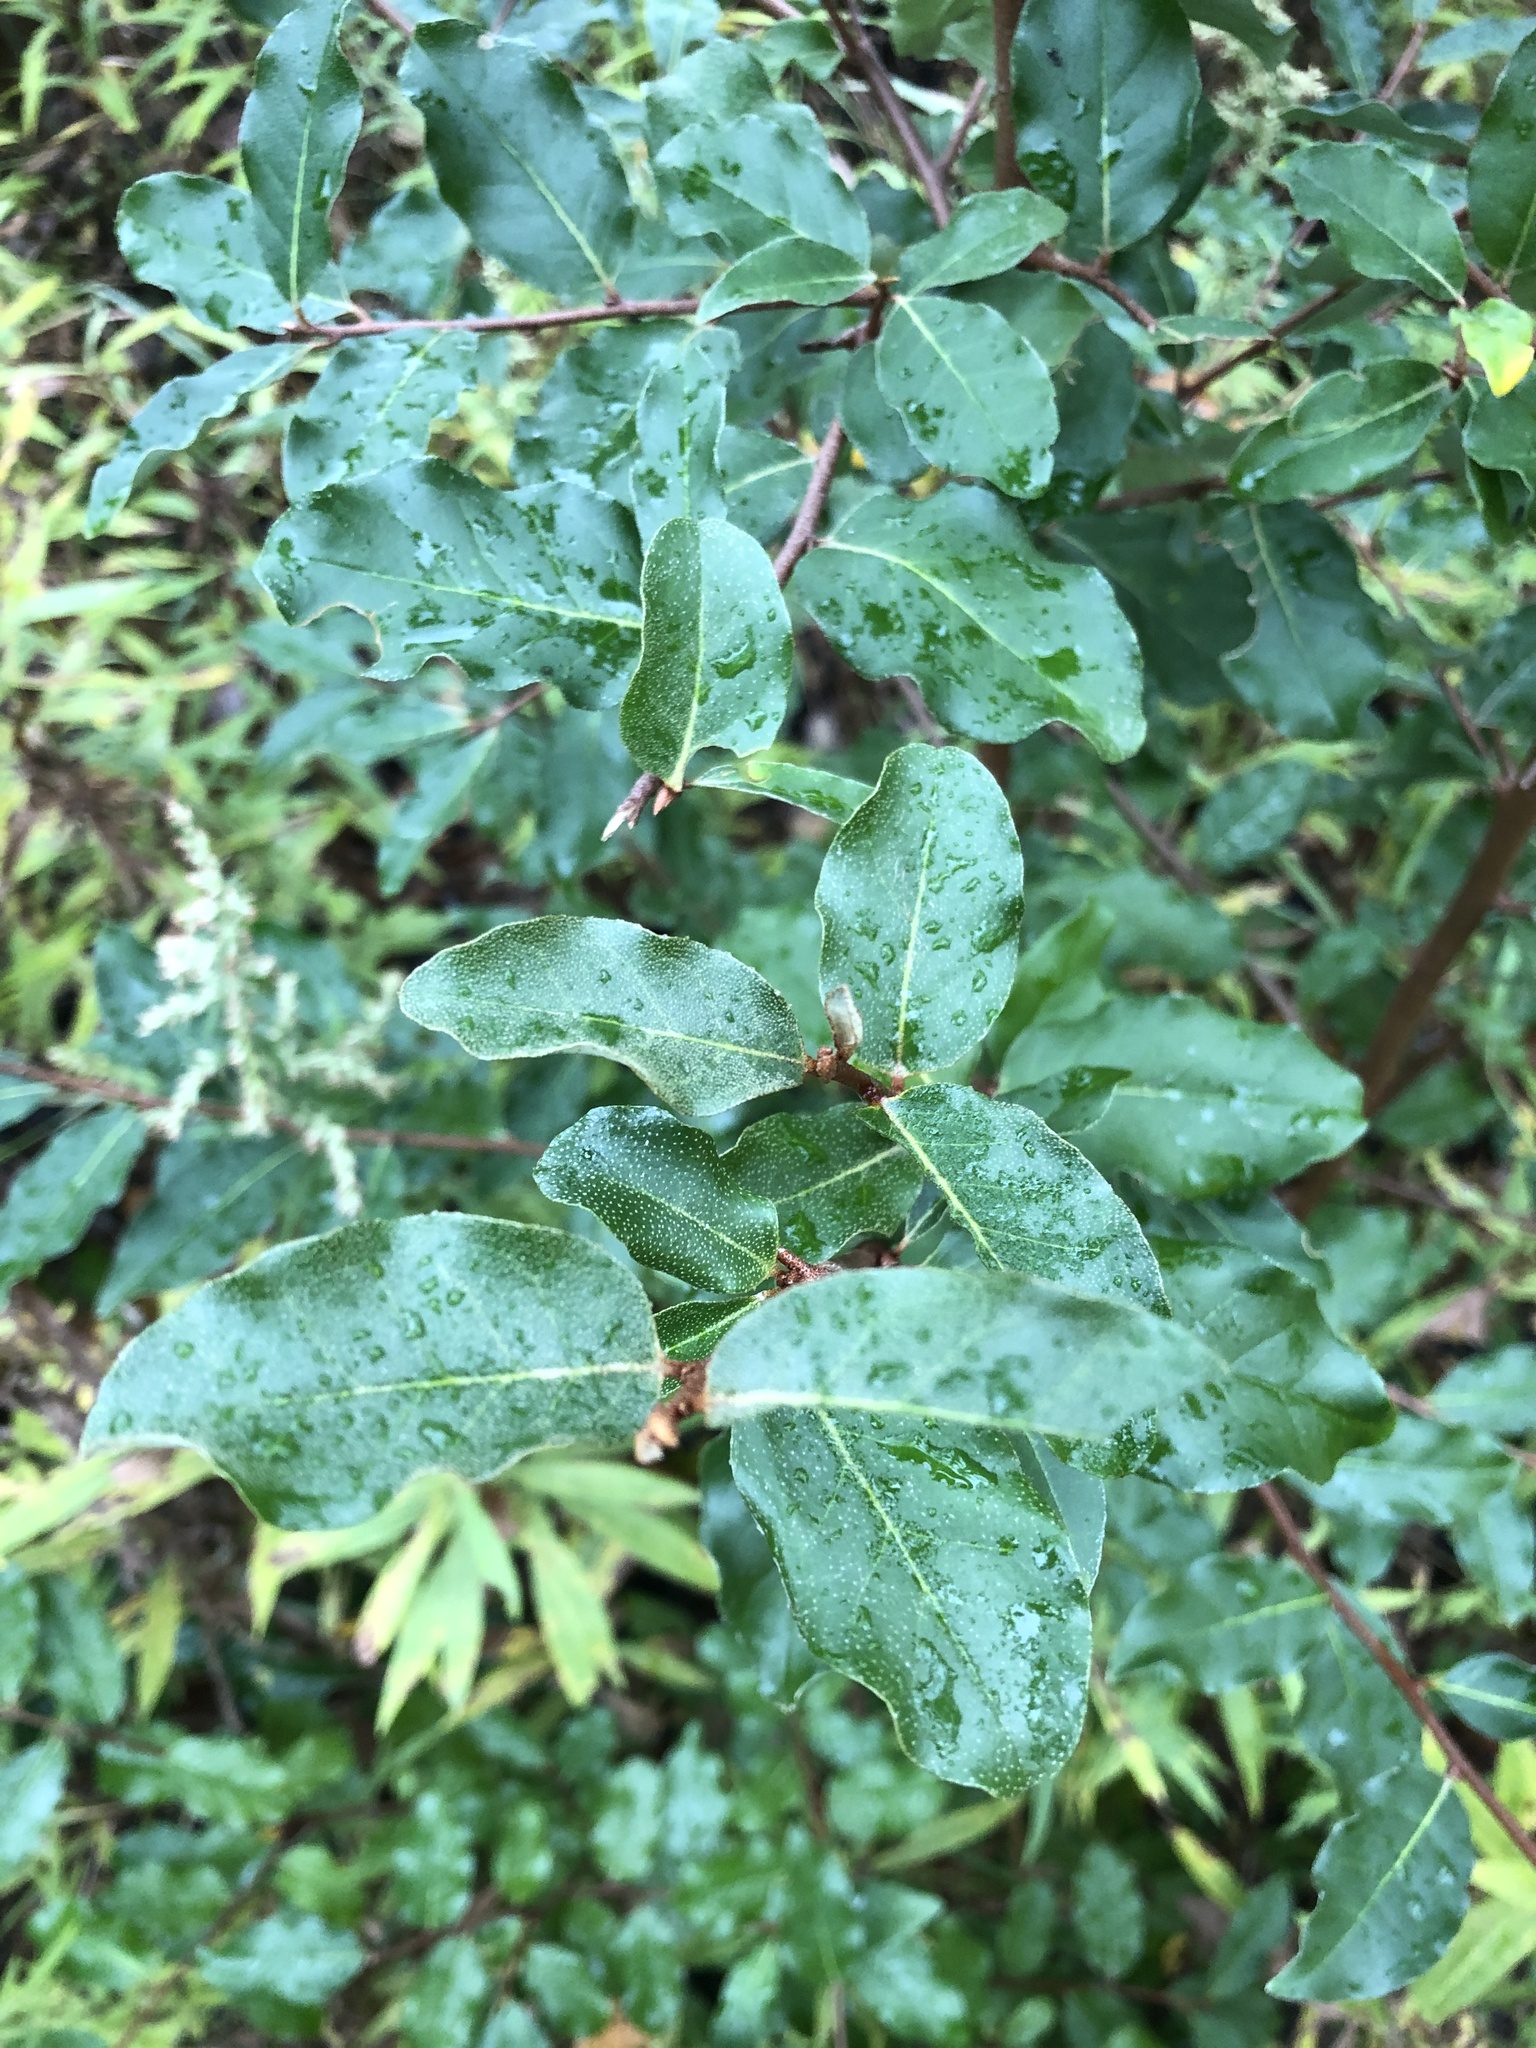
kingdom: Plantae
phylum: Tracheophyta
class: Magnoliopsida
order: Rosales
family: Elaeagnaceae
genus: Elaeagnus
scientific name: Elaeagnus umbellata
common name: Autumn olive
